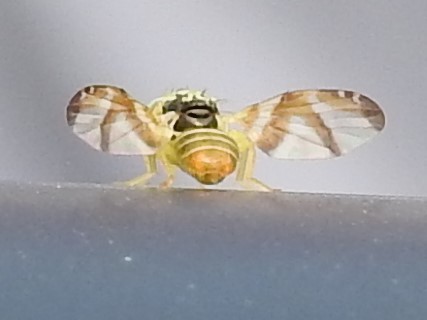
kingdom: Animalia
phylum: Arthropoda
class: Insecta
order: Diptera
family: Tephritidae
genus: Procecidocharoides
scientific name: Procecidocharoides penelope
